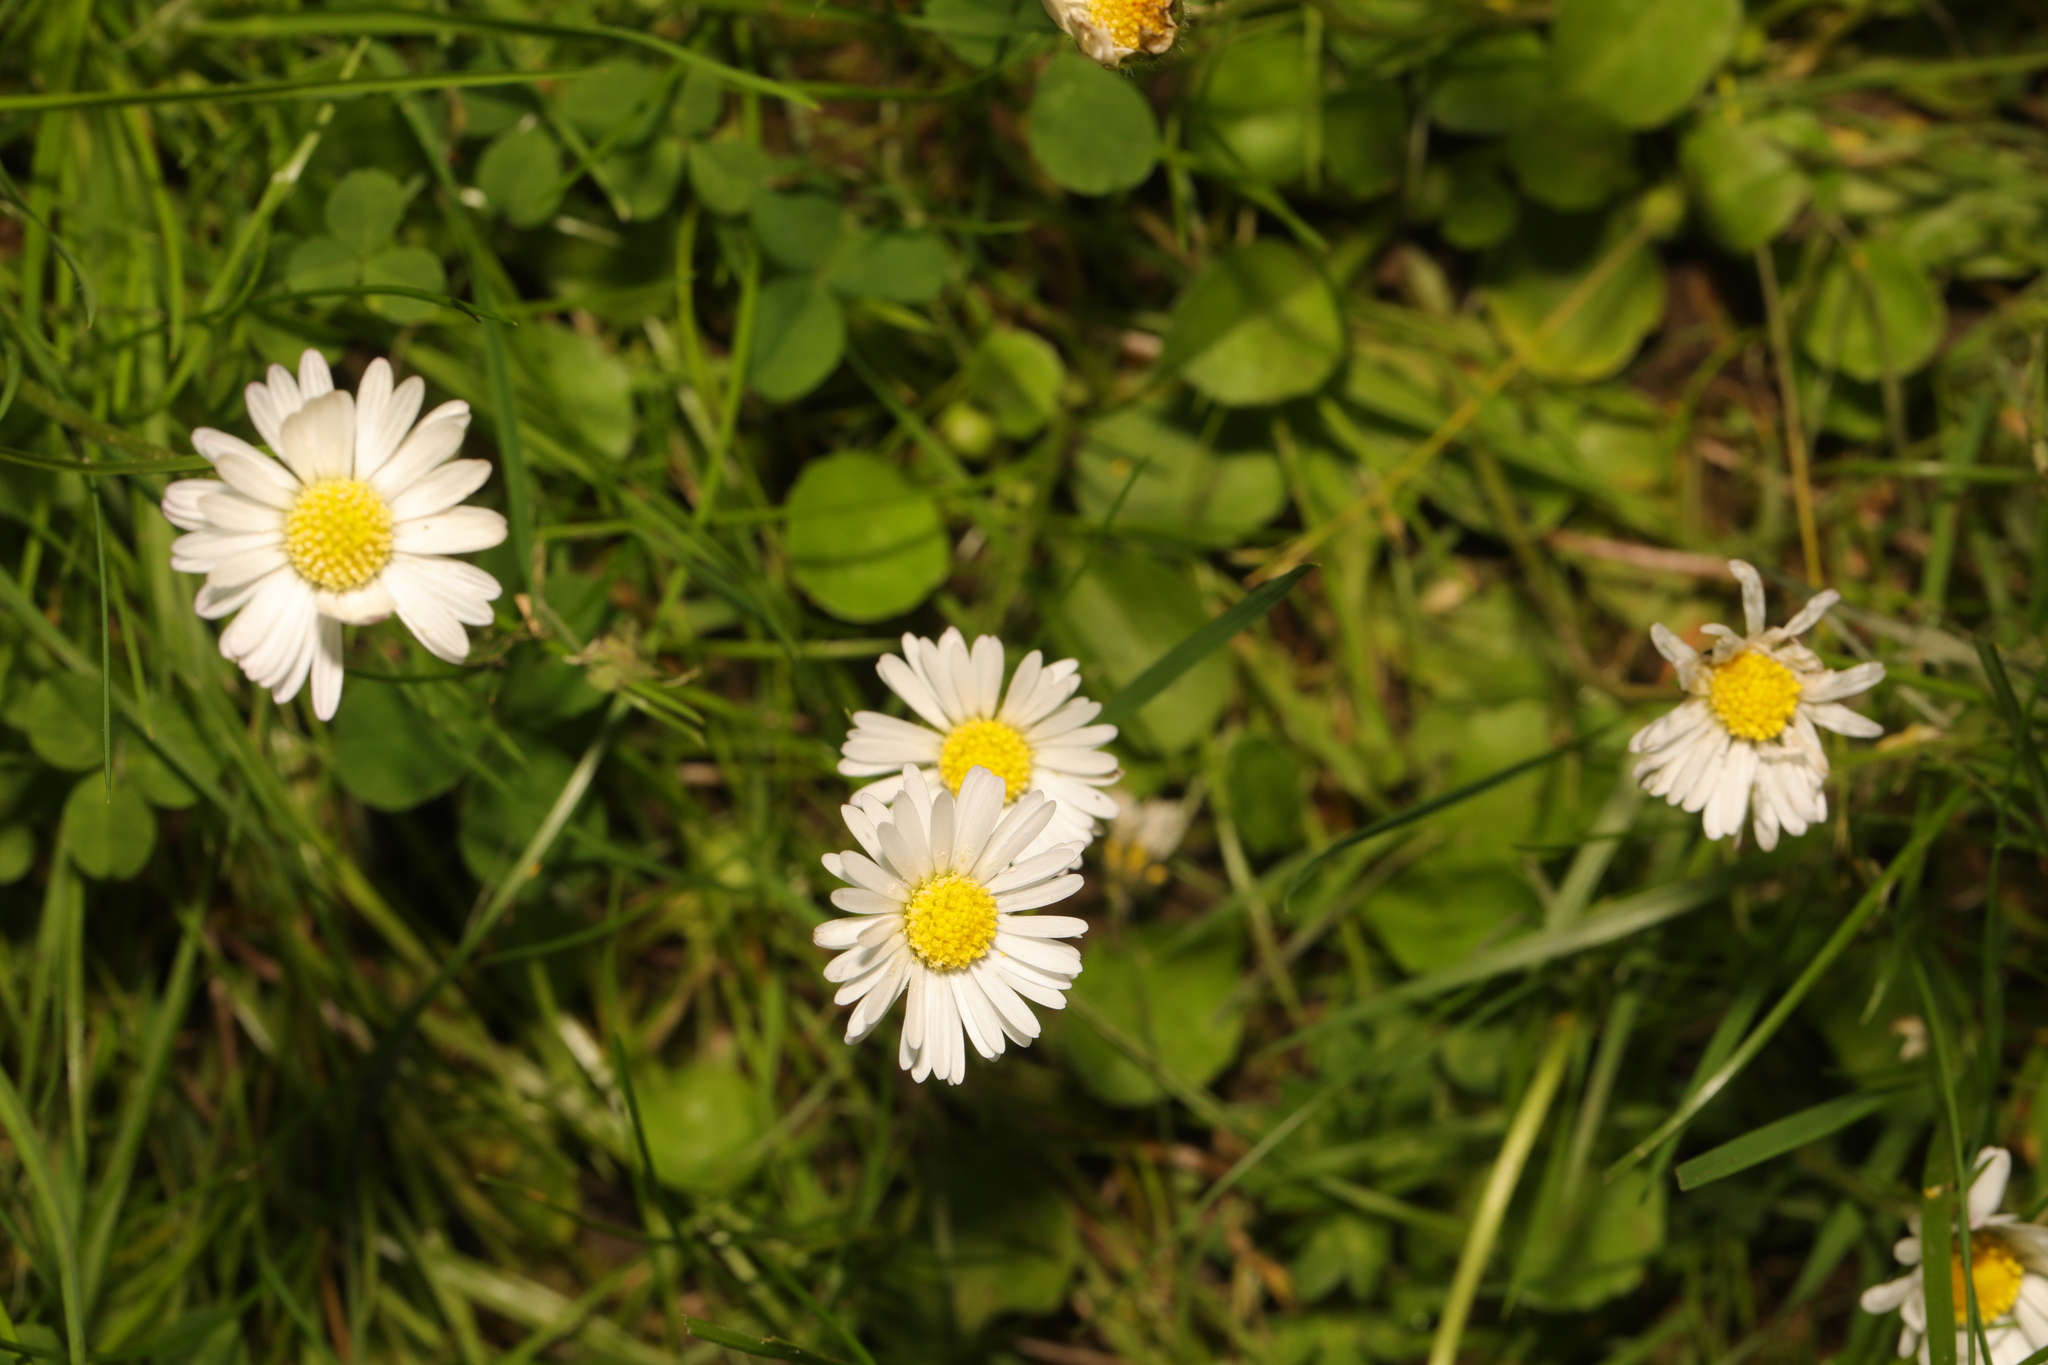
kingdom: Plantae
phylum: Tracheophyta
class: Magnoliopsida
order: Asterales
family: Asteraceae
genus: Bellis
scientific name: Bellis perennis
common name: Lawndaisy
